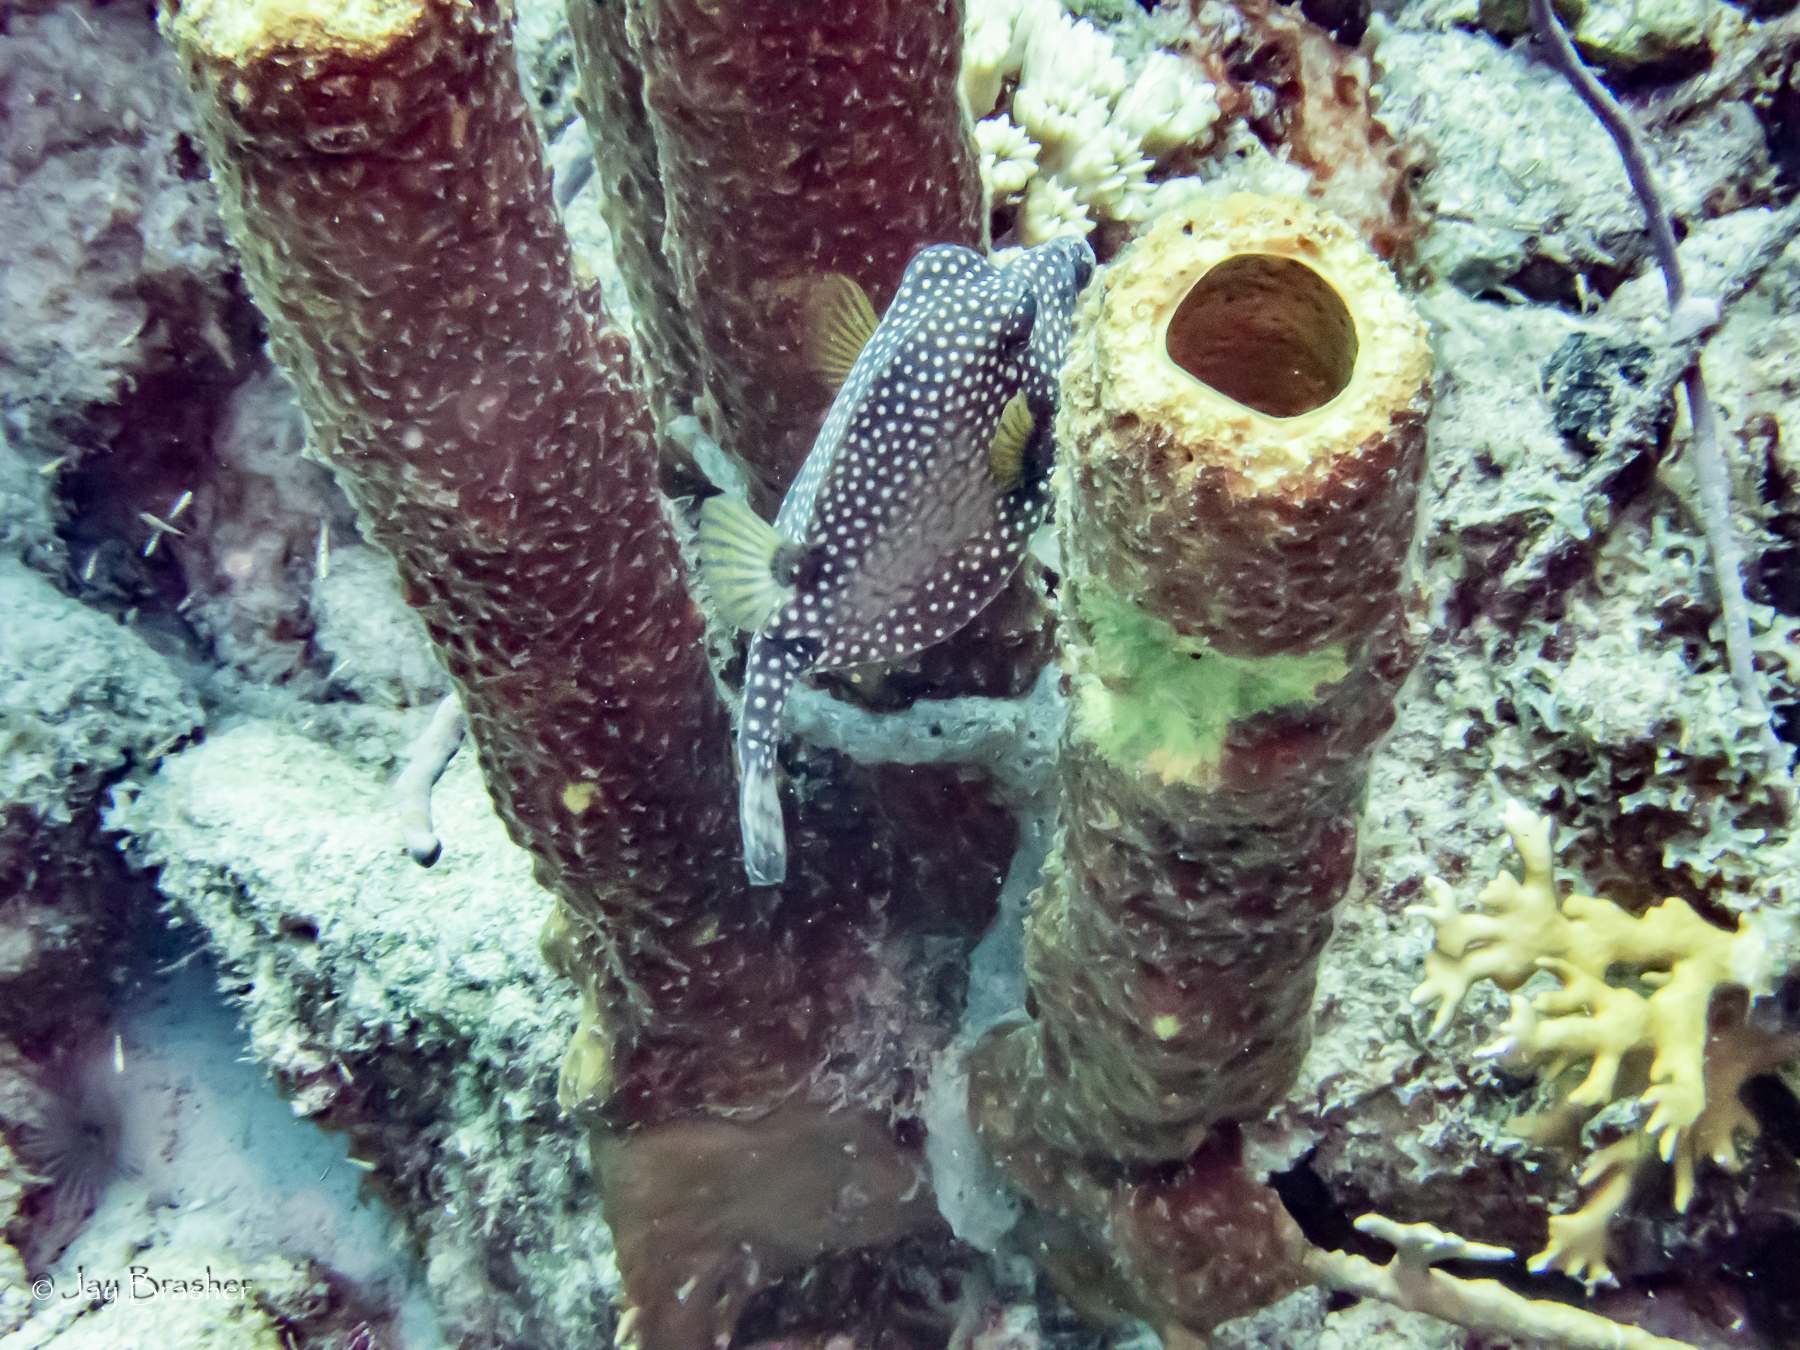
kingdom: Animalia
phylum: Chordata
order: Tetraodontiformes
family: Ostraciidae
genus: Lactophrys
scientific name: Lactophrys triqueter
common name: Smooth trunkfish
